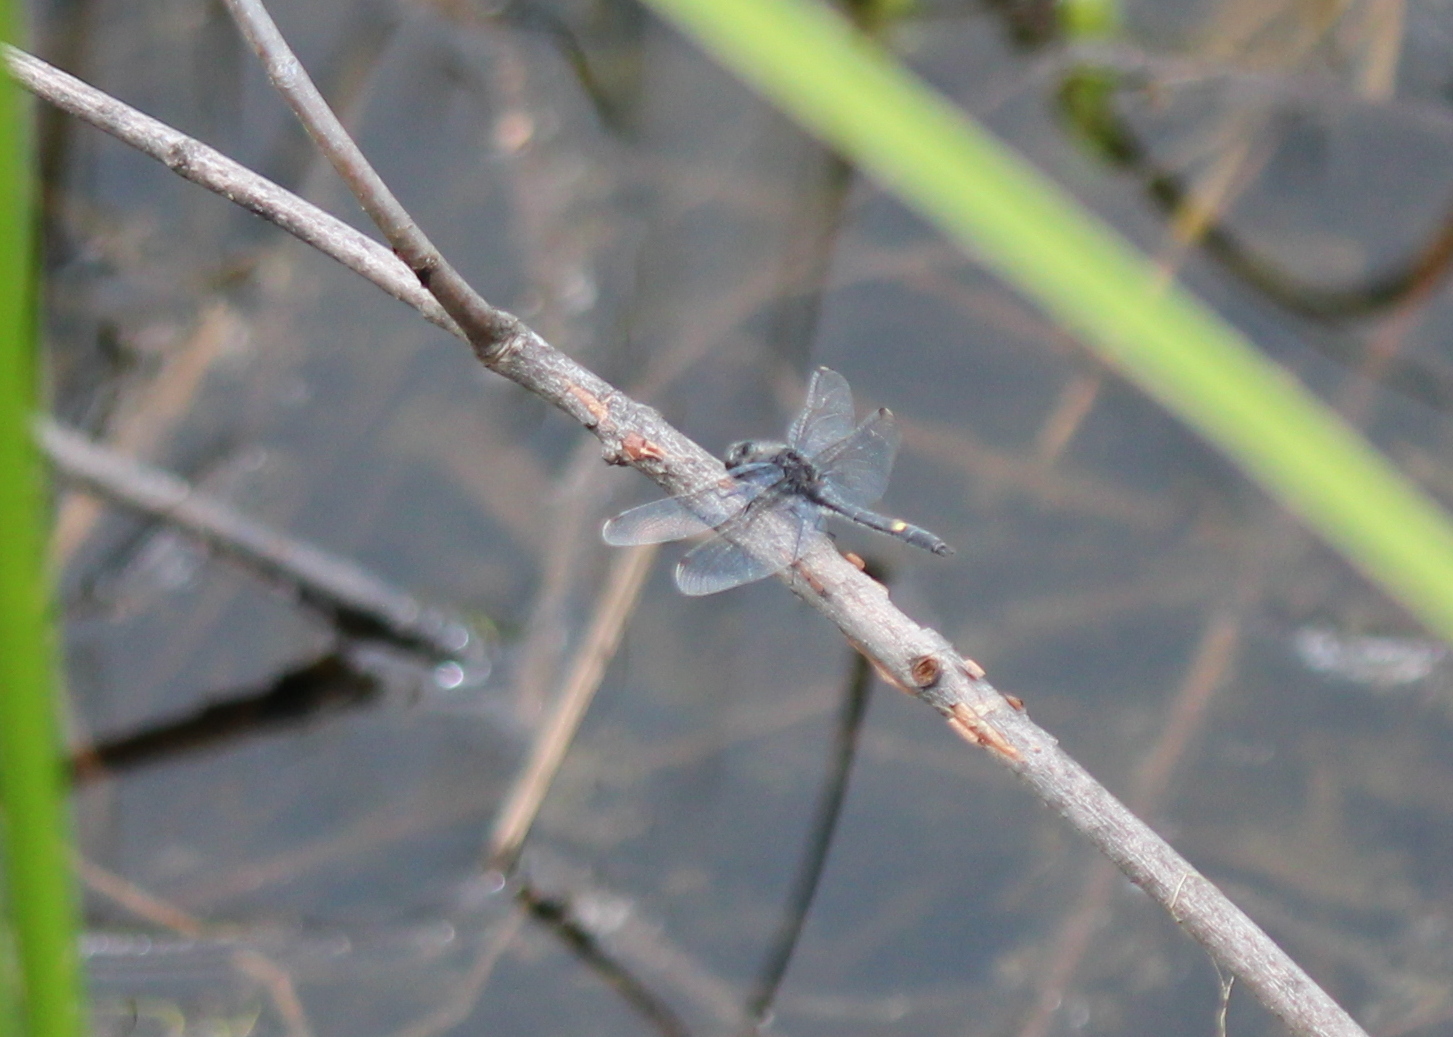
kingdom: Animalia
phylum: Arthropoda
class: Insecta
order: Odonata
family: Libellulidae
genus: Leucorrhinia
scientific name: Leucorrhinia intacta
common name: Dot-tailed whiteface
